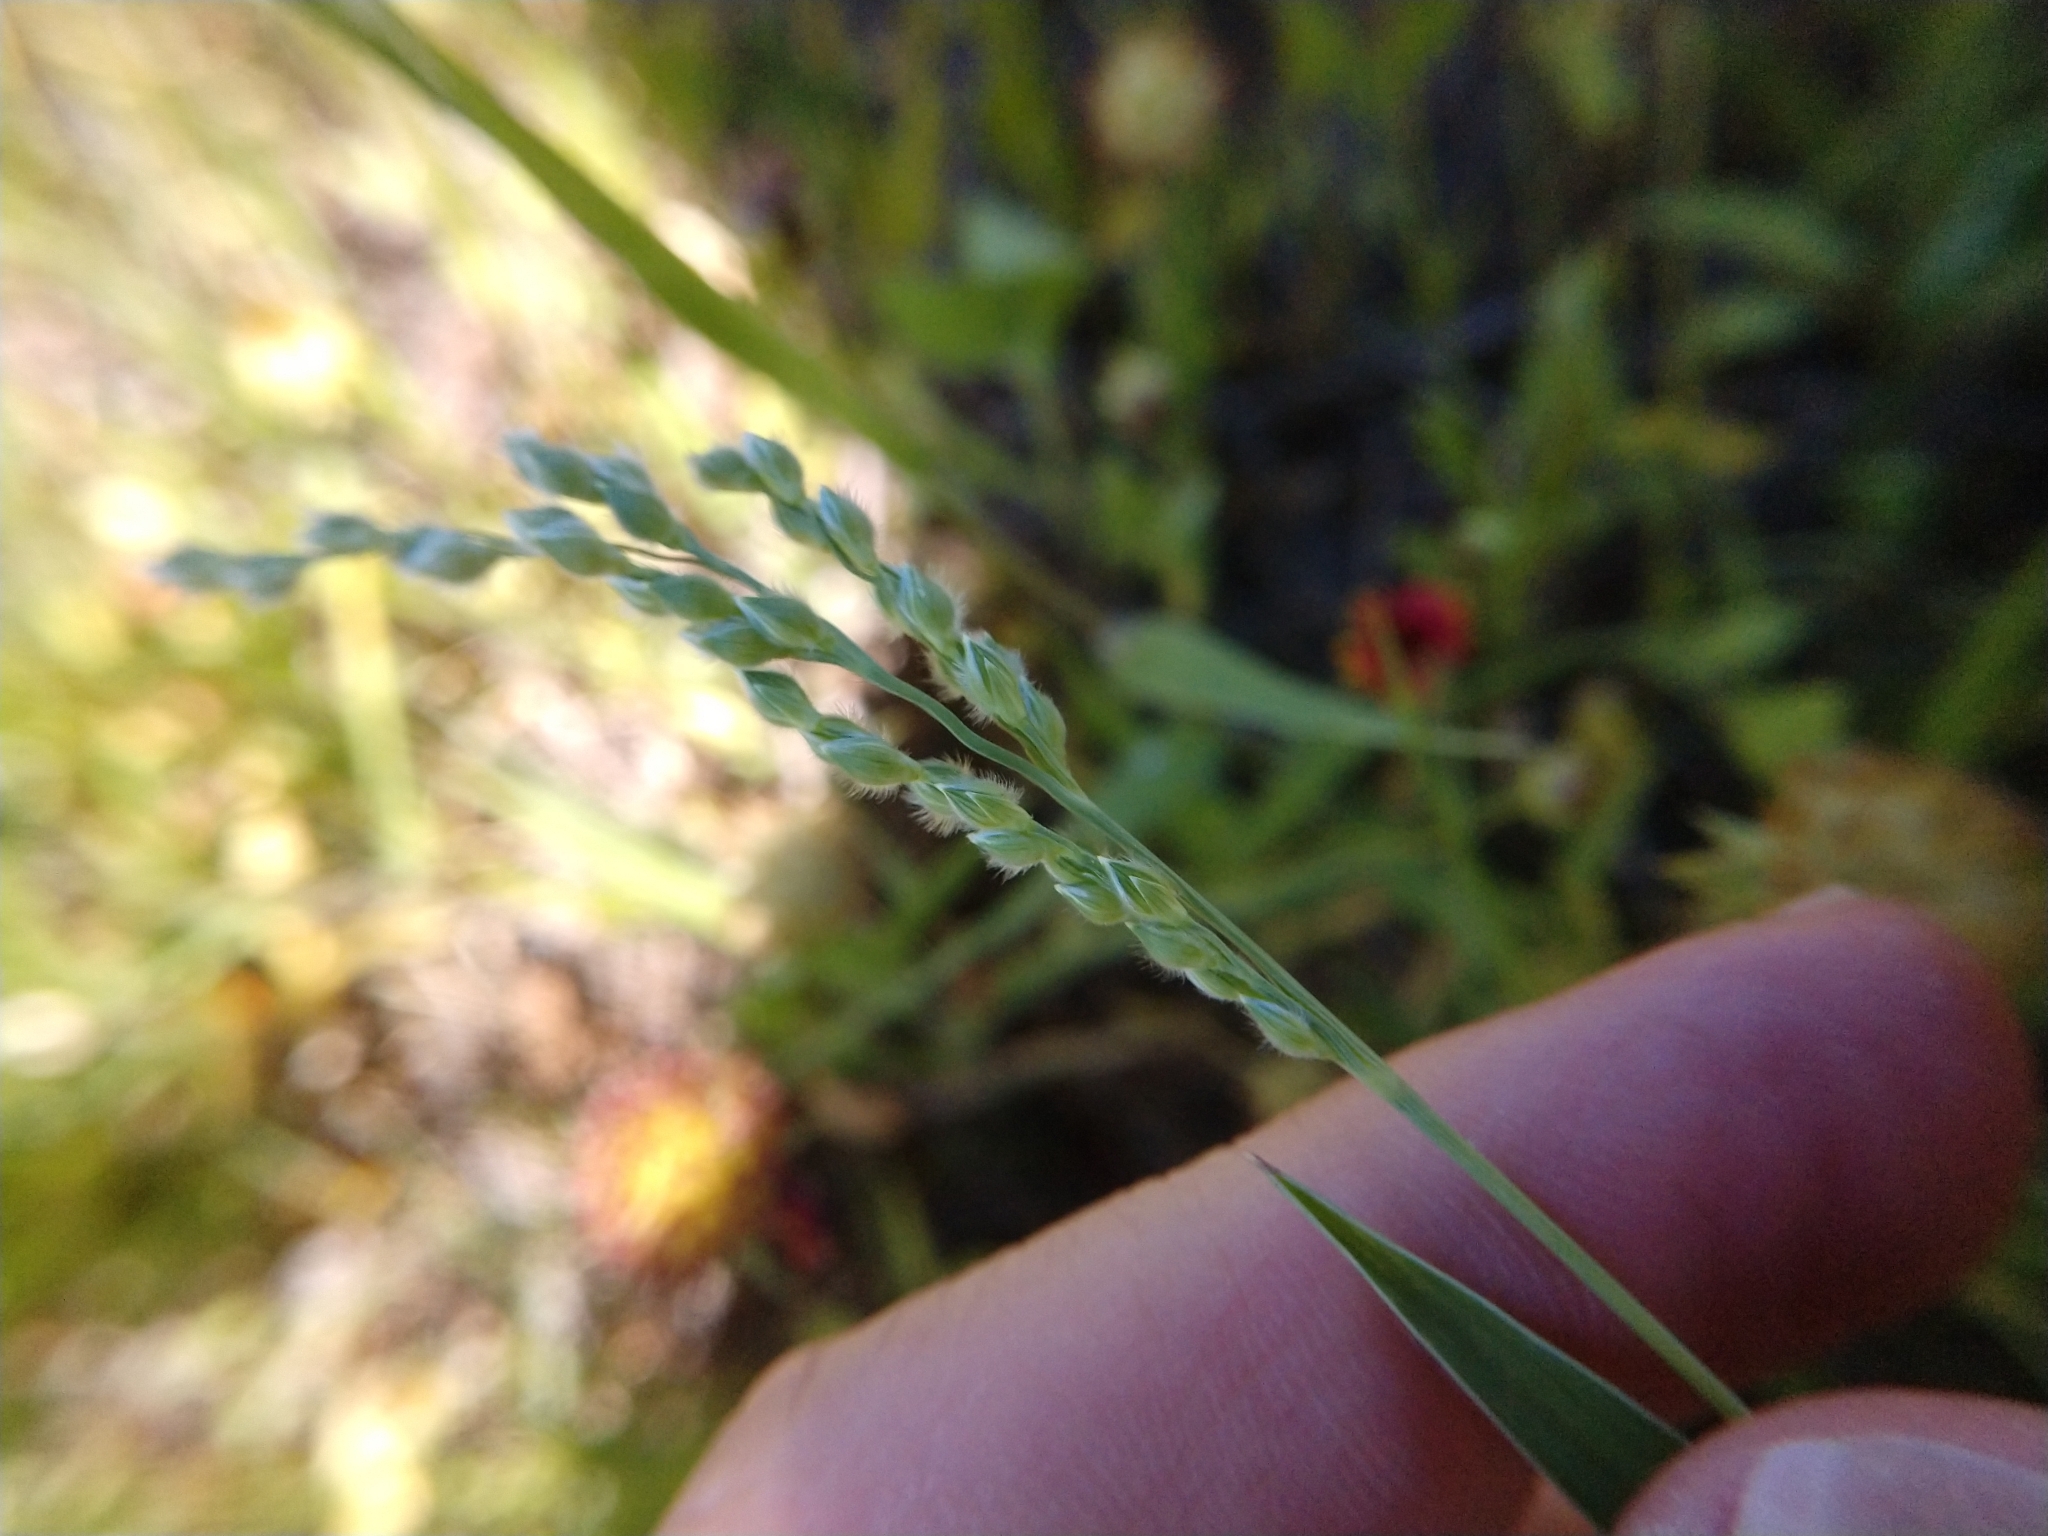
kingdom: Plantae
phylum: Tracheophyta
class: Liliopsida
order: Poales
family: Poaceae
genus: Urochloa
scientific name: Urochloa ciliatissima
